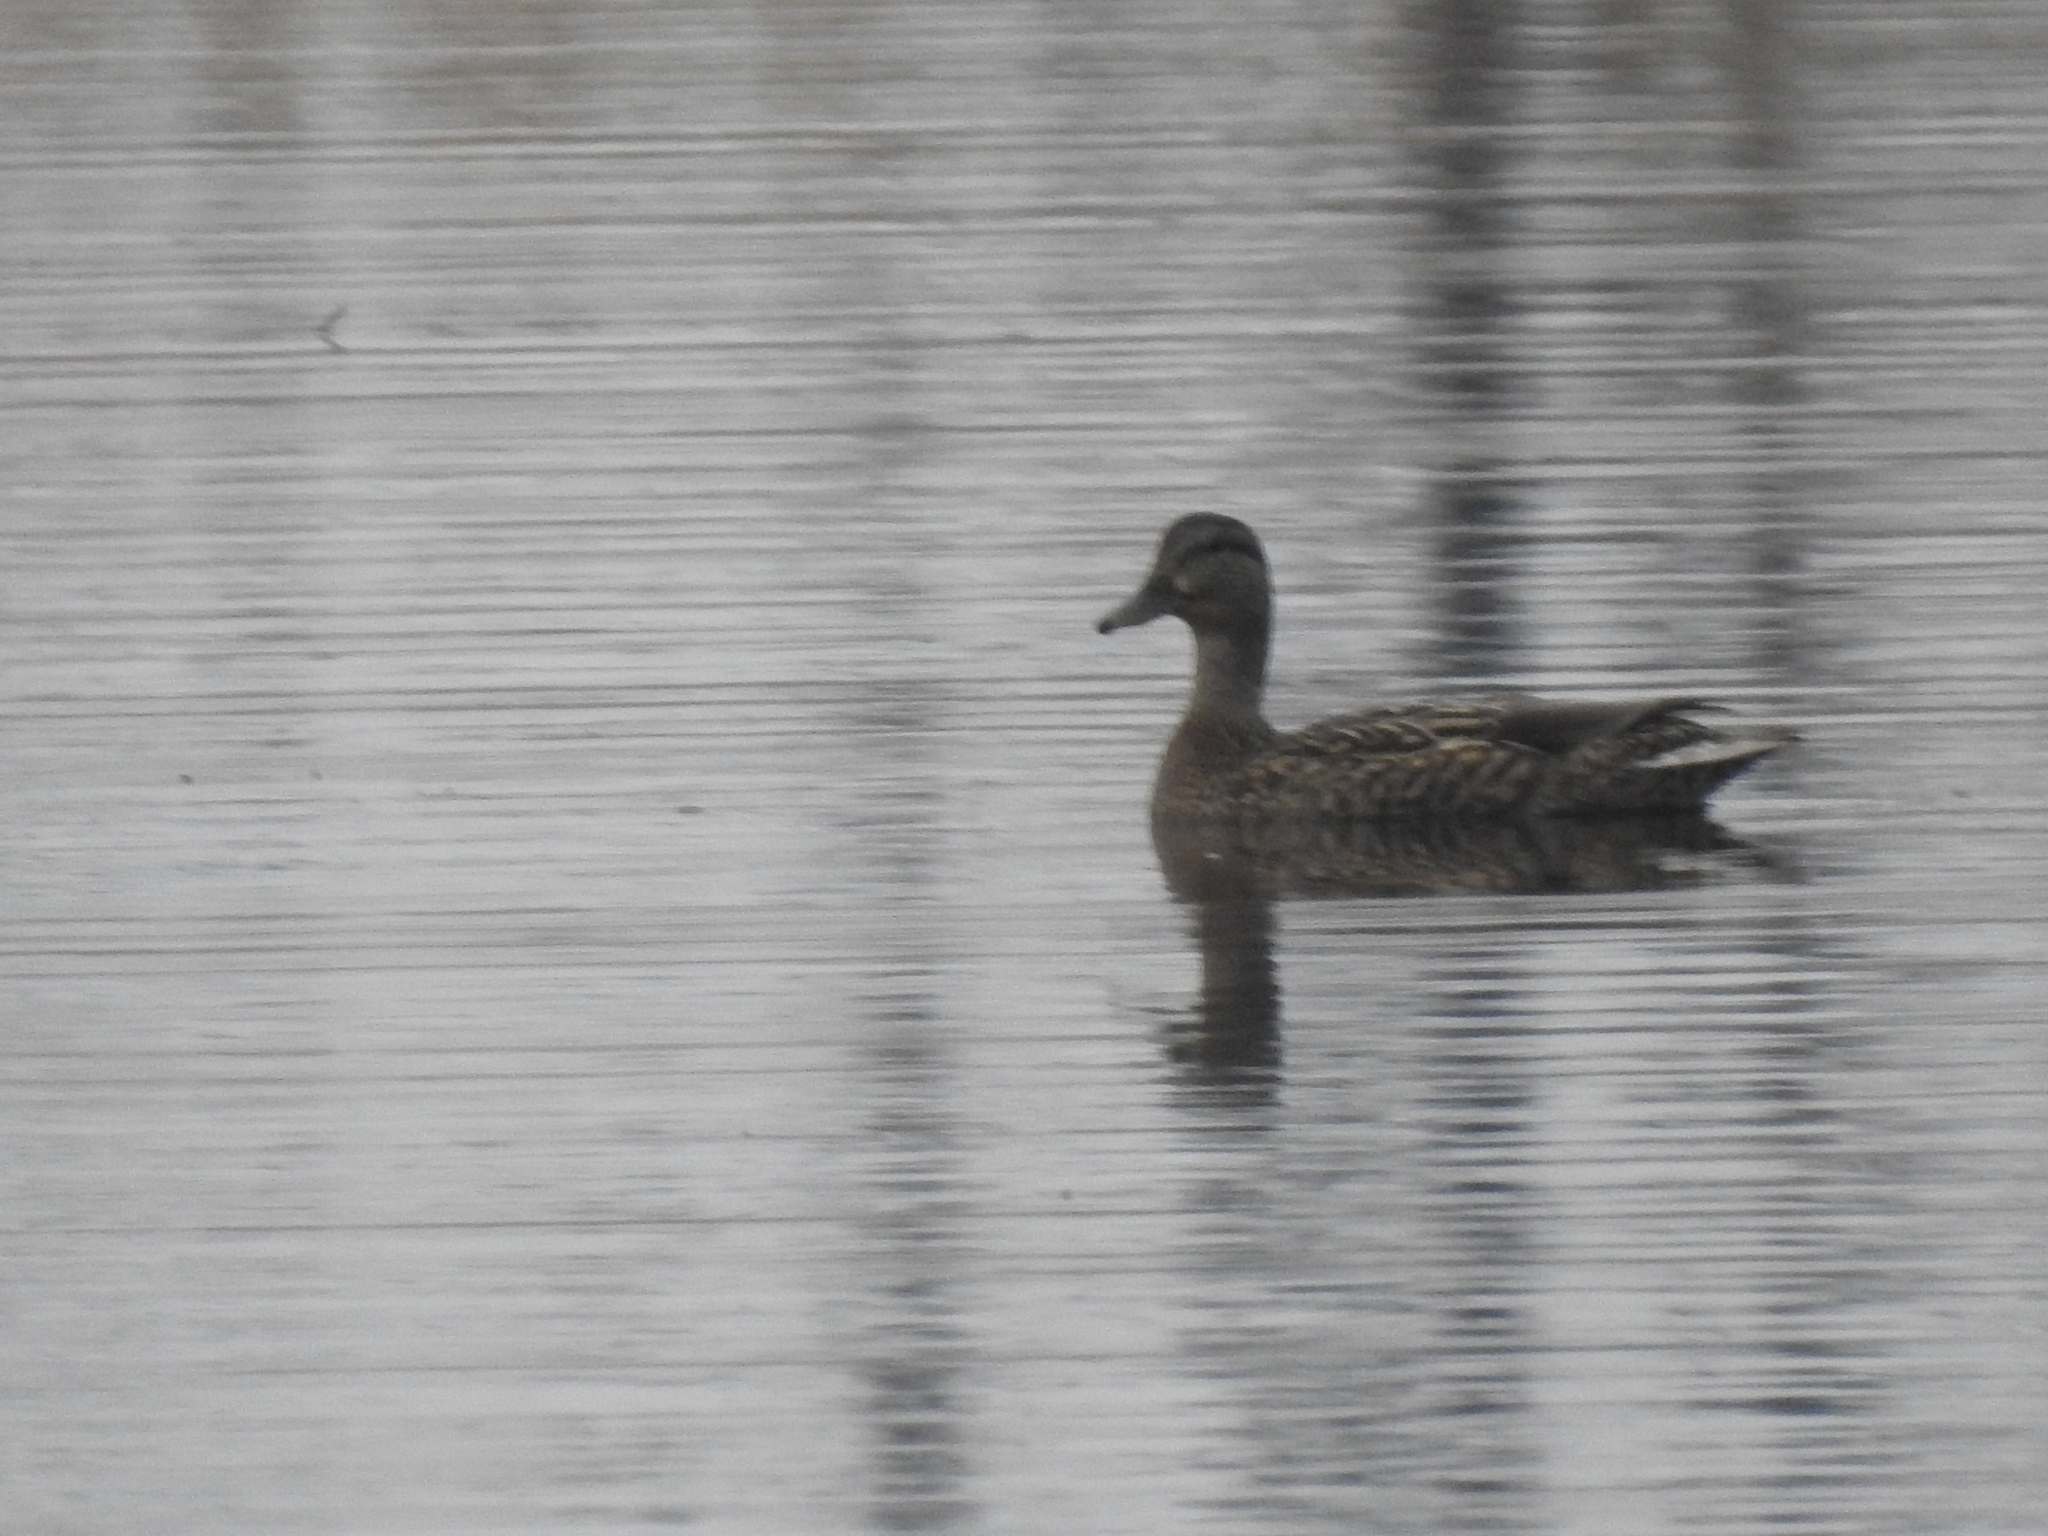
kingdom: Animalia
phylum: Chordata
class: Aves
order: Anseriformes
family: Anatidae
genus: Anas
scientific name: Anas platyrhynchos
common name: Mallard
